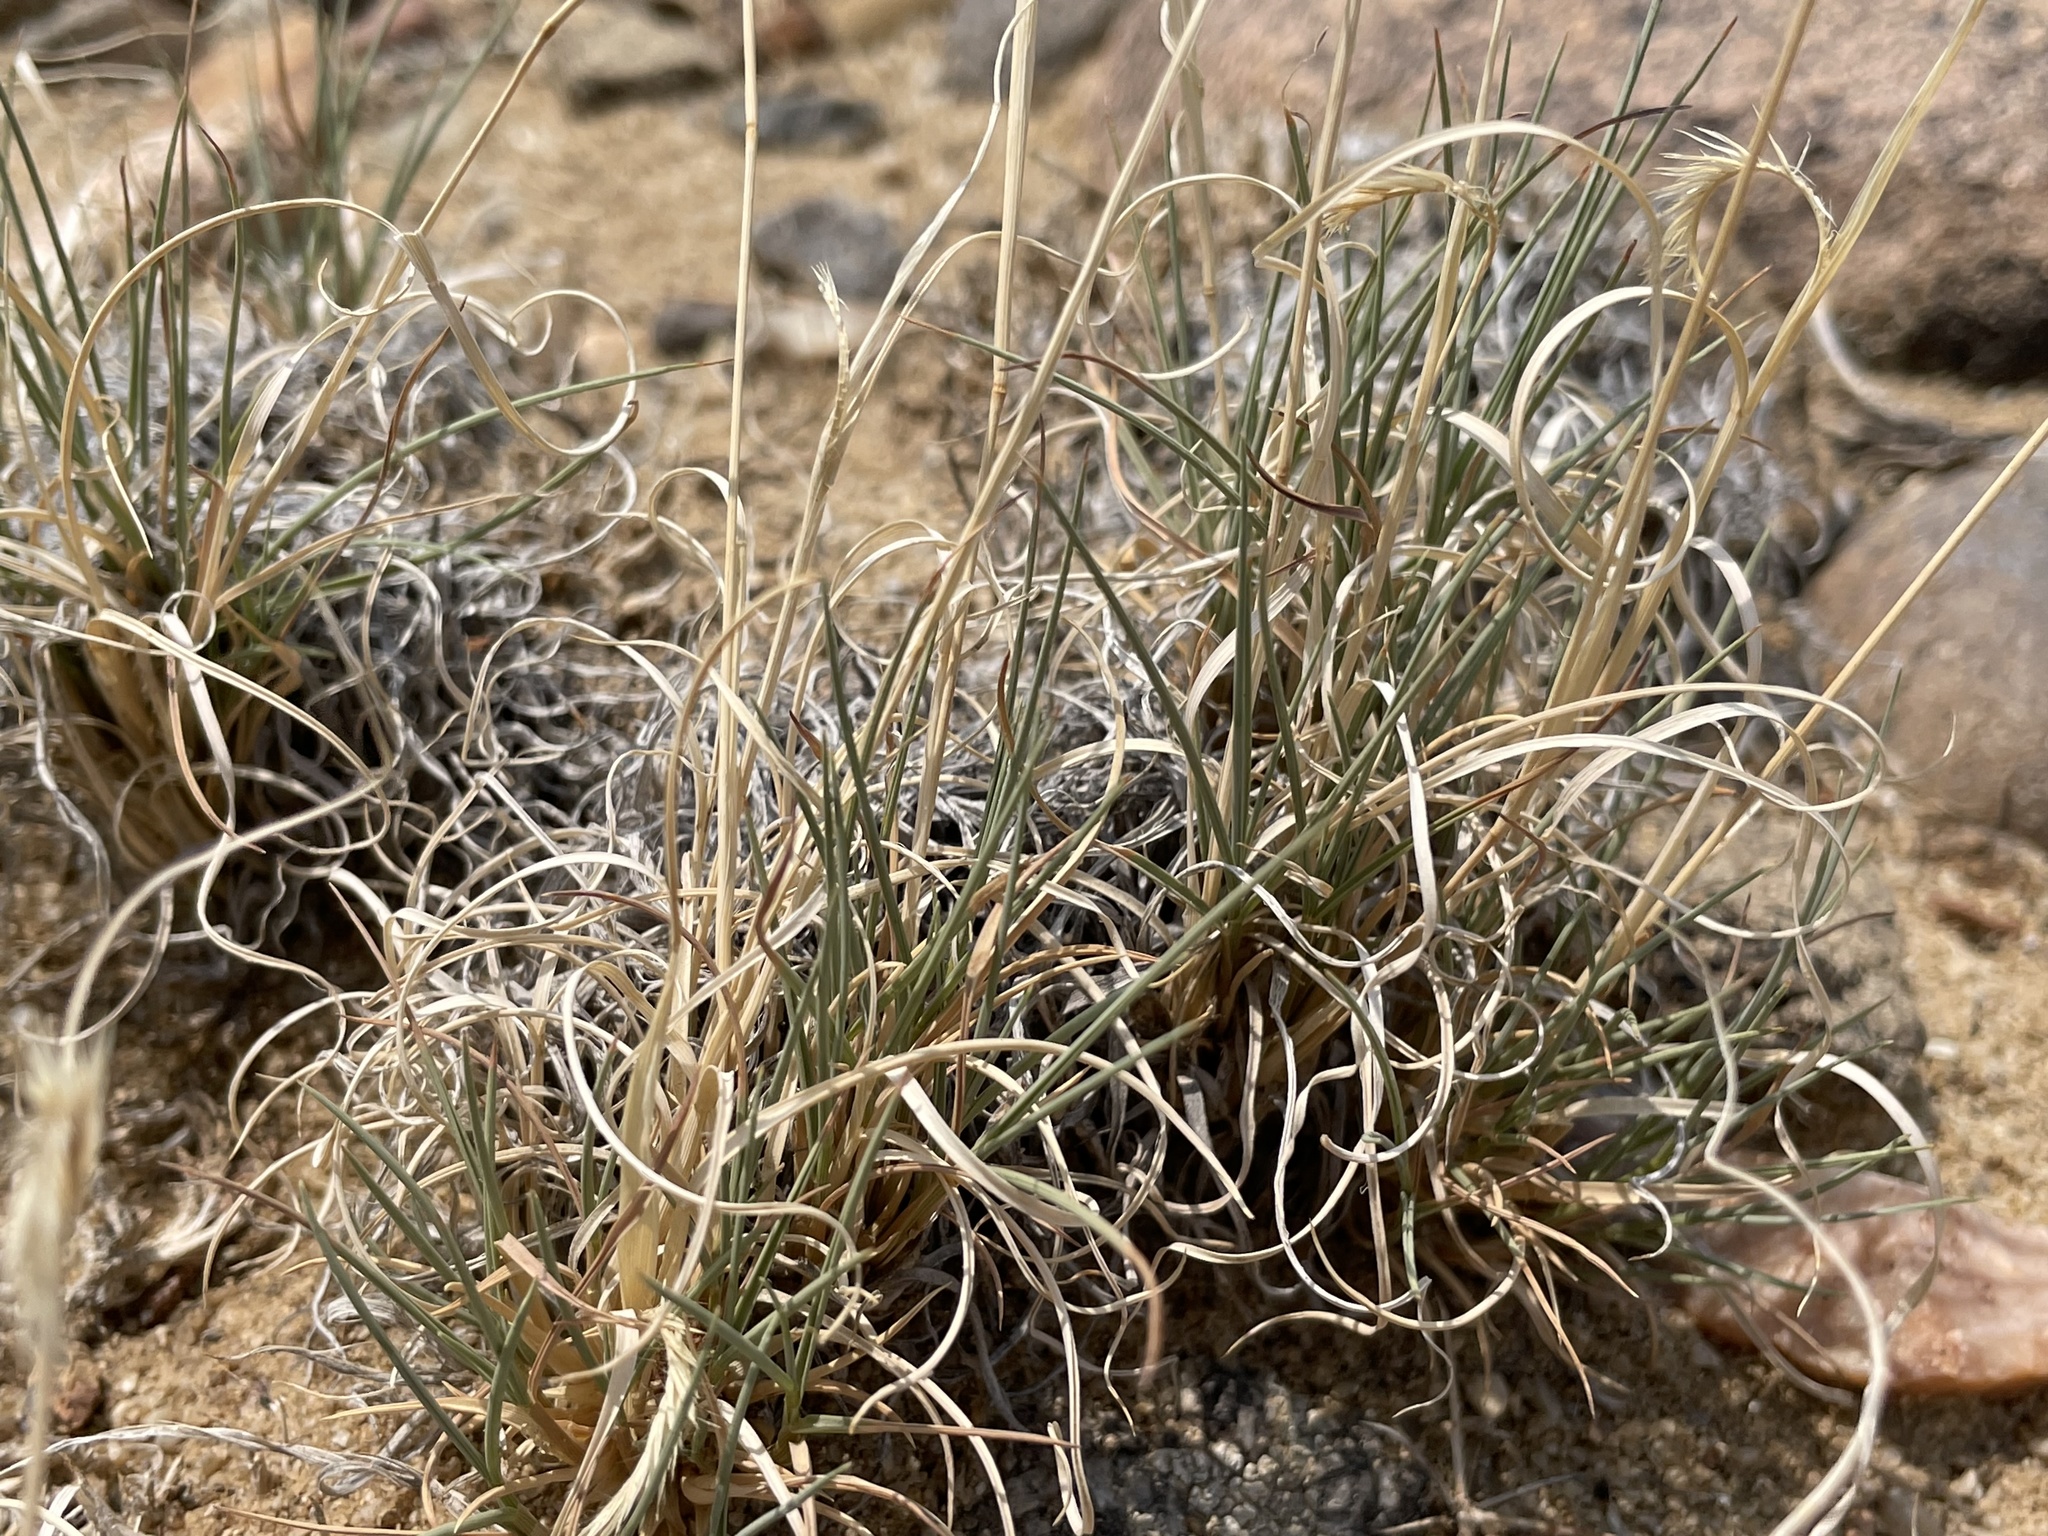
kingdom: Plantae
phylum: Tracheophyta
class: Liliopsida
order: Poales
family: Poaceae
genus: Bouteloua
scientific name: Bouteloua gracilis
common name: Blue grama
